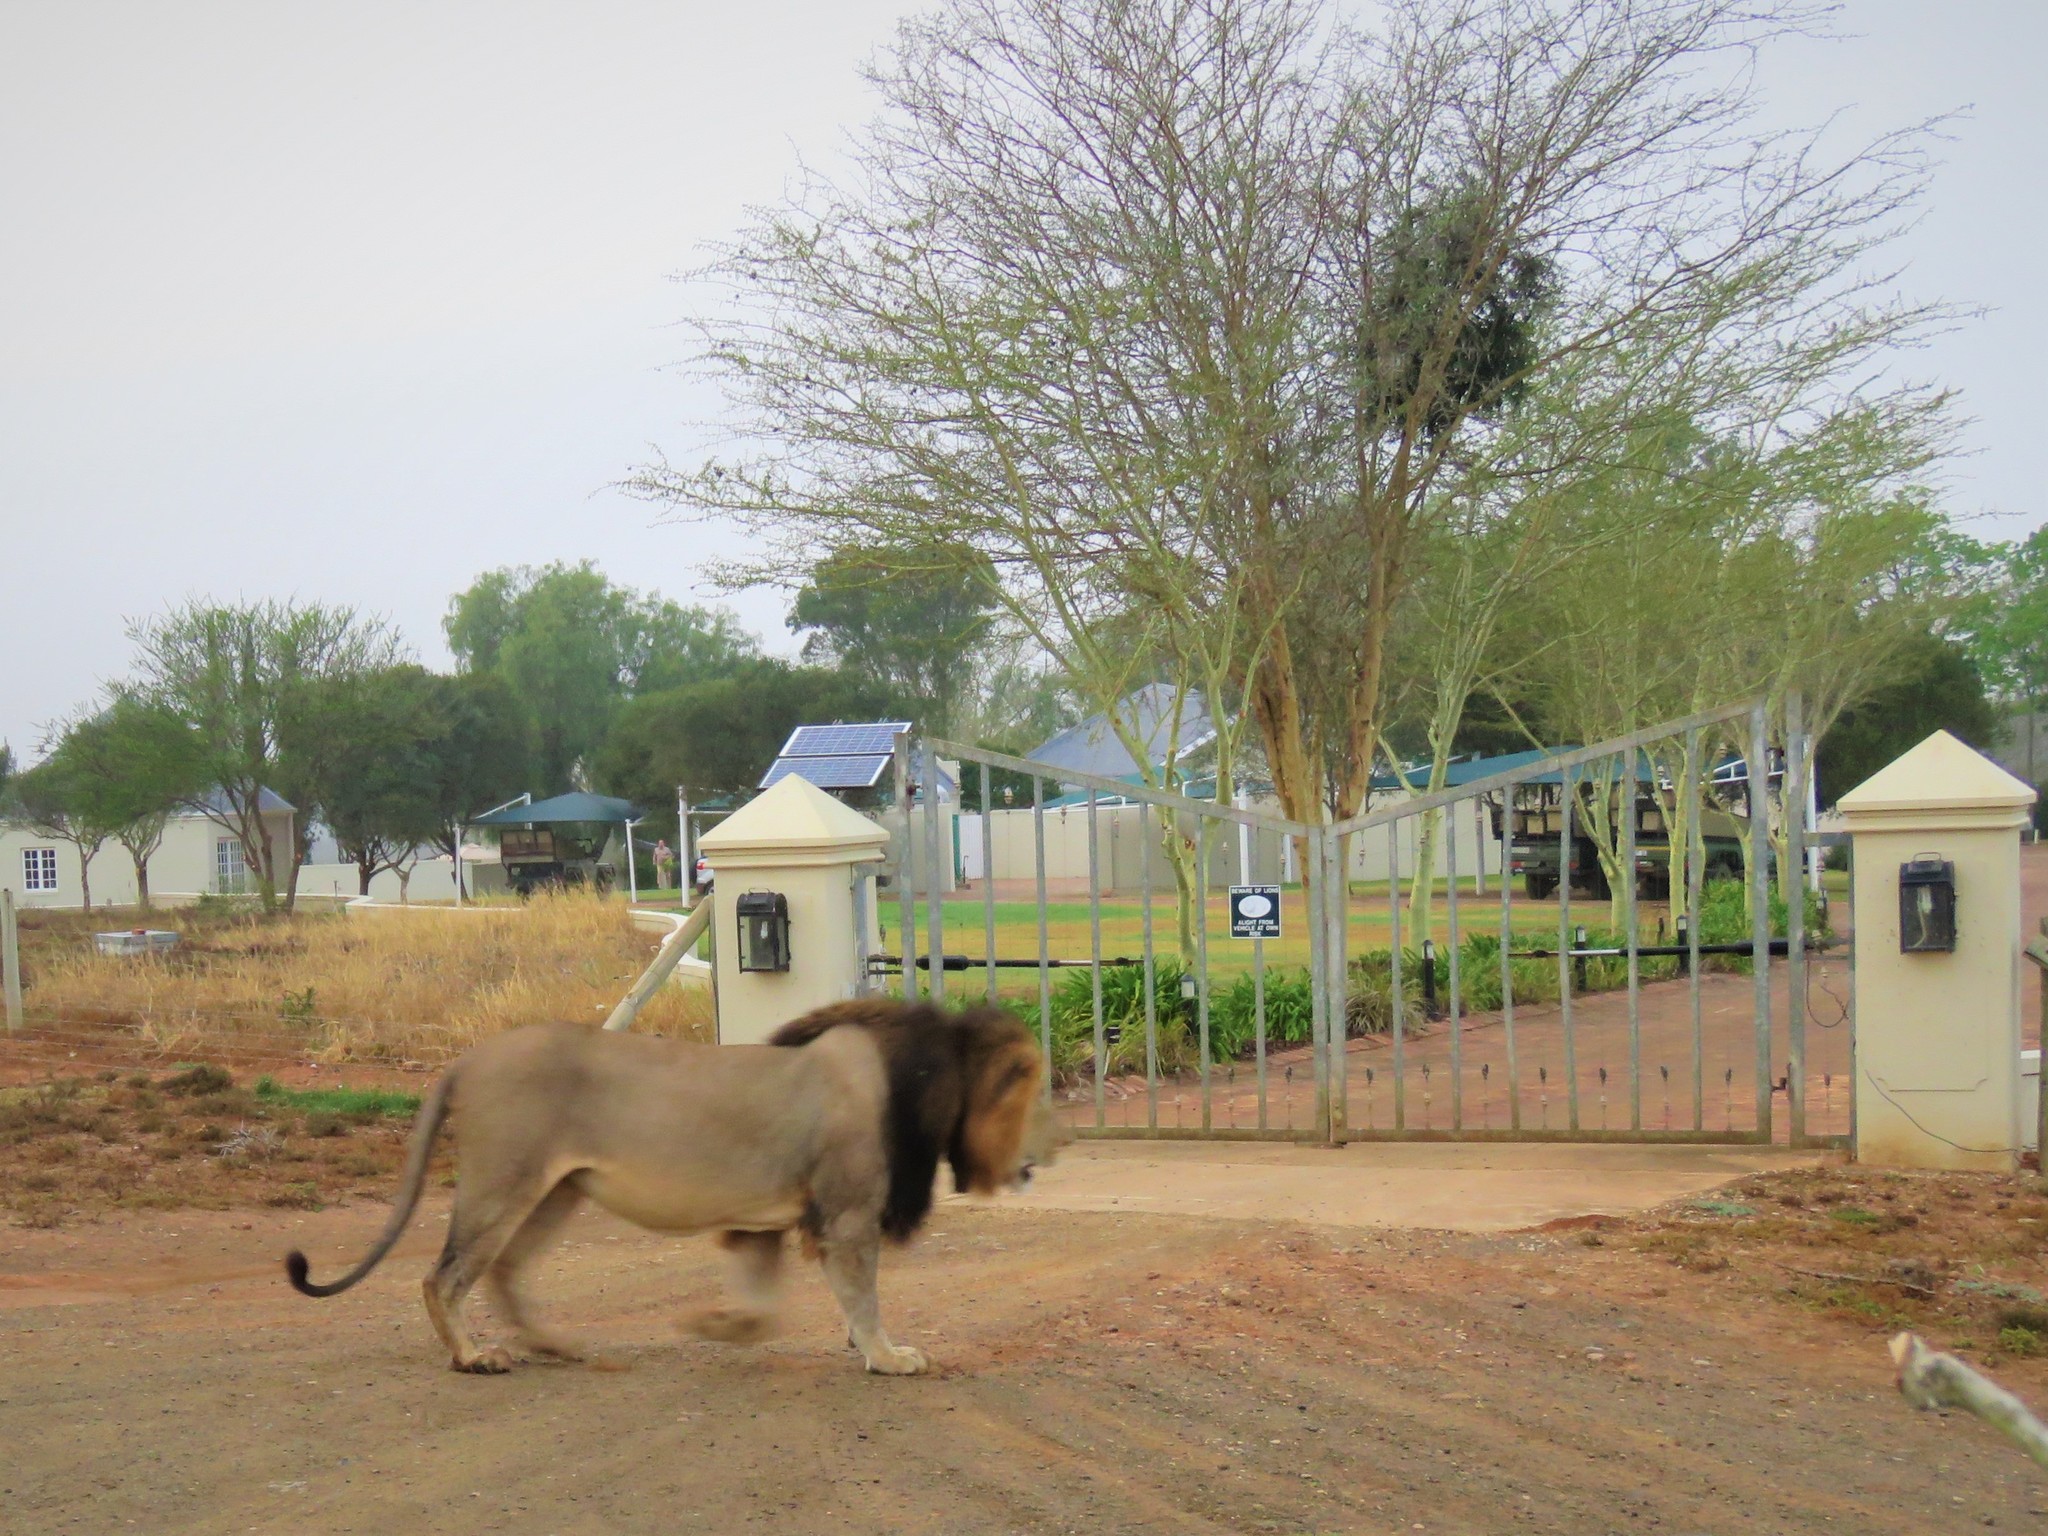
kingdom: Animalia
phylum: Chordata
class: Mammalia
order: Carnivora
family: Felidae
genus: Panthera
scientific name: Panthera leo
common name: Lion
